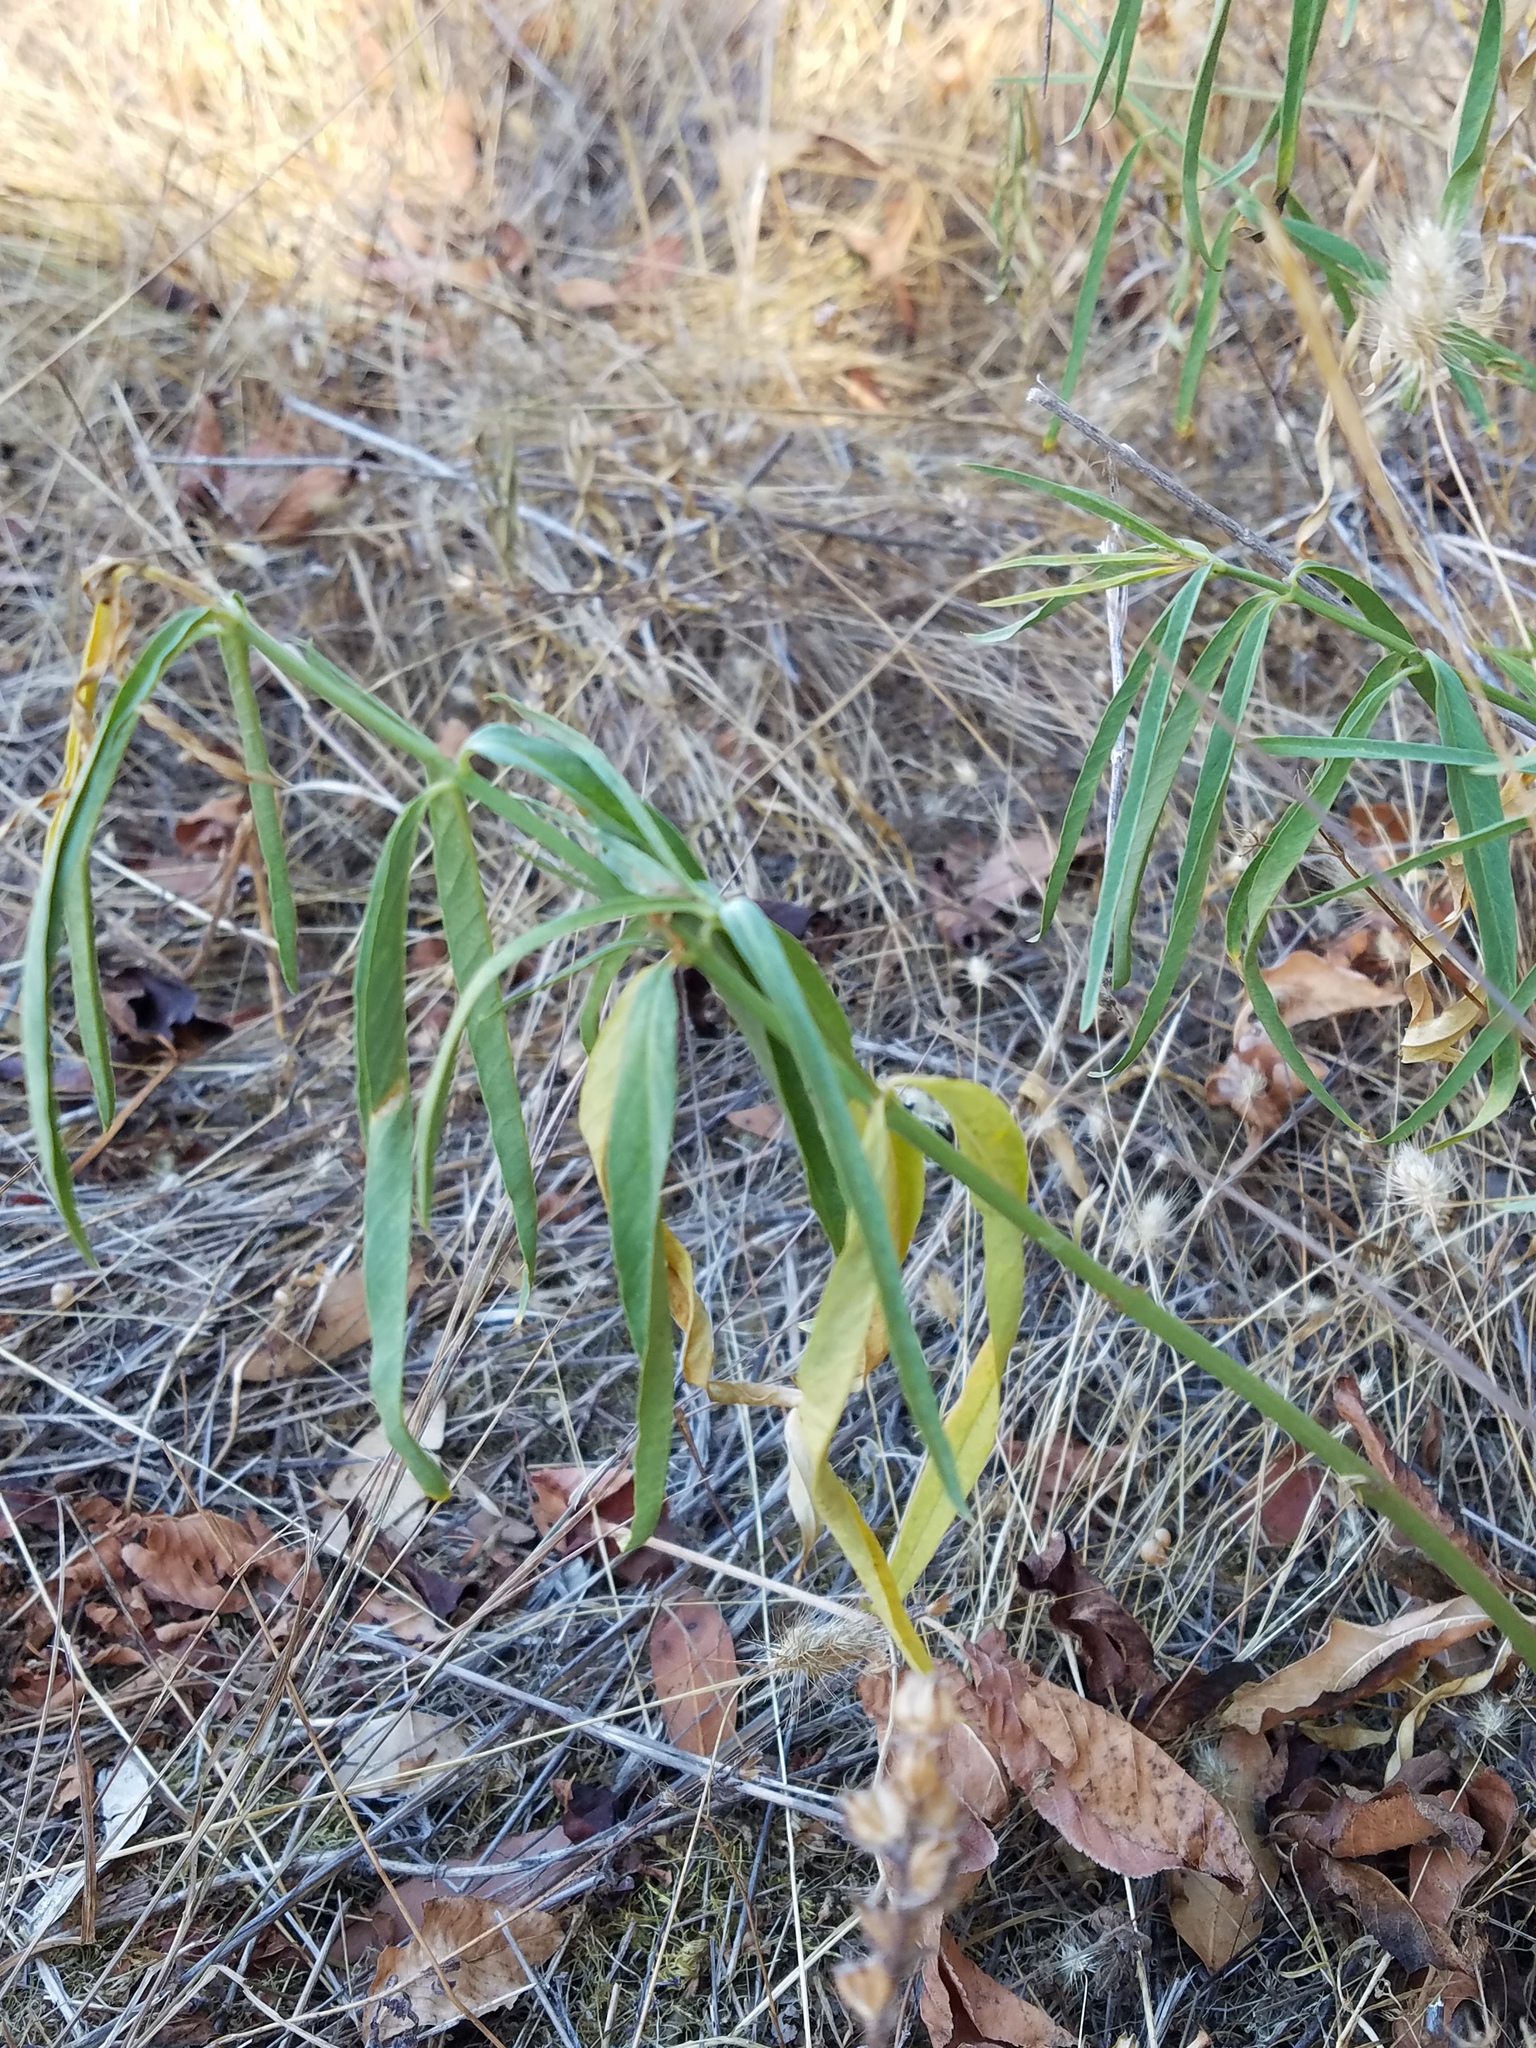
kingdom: Plantae
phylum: Tracheophyta
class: Magnoliopsida
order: Gentianales
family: Apocynaceae
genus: Asclepias
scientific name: Asclepias fascicularis
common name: Mexican milkweed
